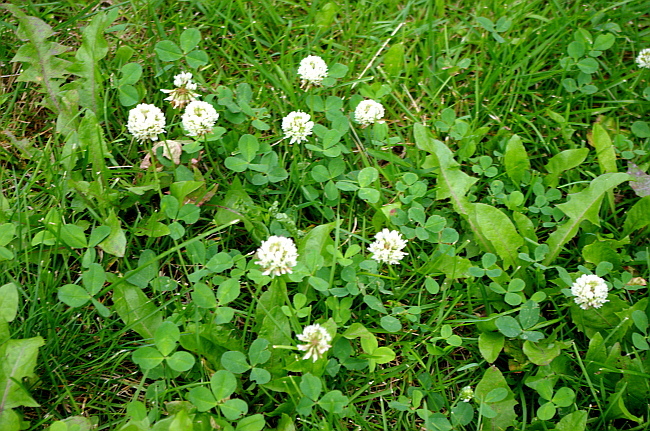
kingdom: Plantae
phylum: Tracheophyta
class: Magnoliopsida
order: Fabales
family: Fabaceae
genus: Trifolium
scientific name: Trifolium repens
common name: White clover
